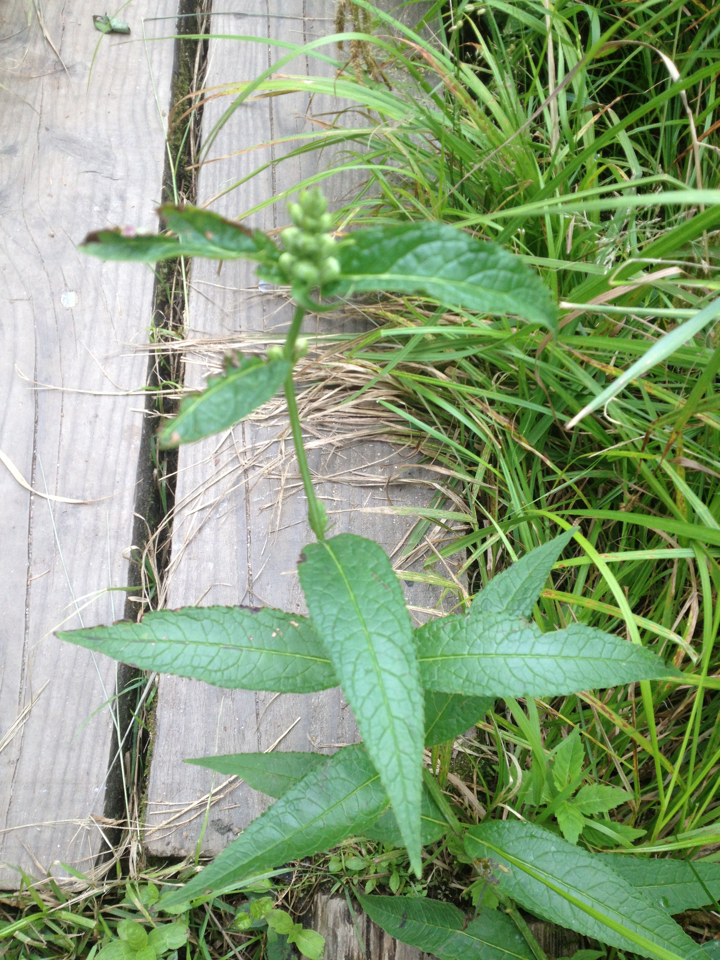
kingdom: Plantae
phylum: Tracheophyta
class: Magnoliopsida
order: Lamiales
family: Plantaginaceae
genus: Chelone
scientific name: Chelone glabra
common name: Snakehead
